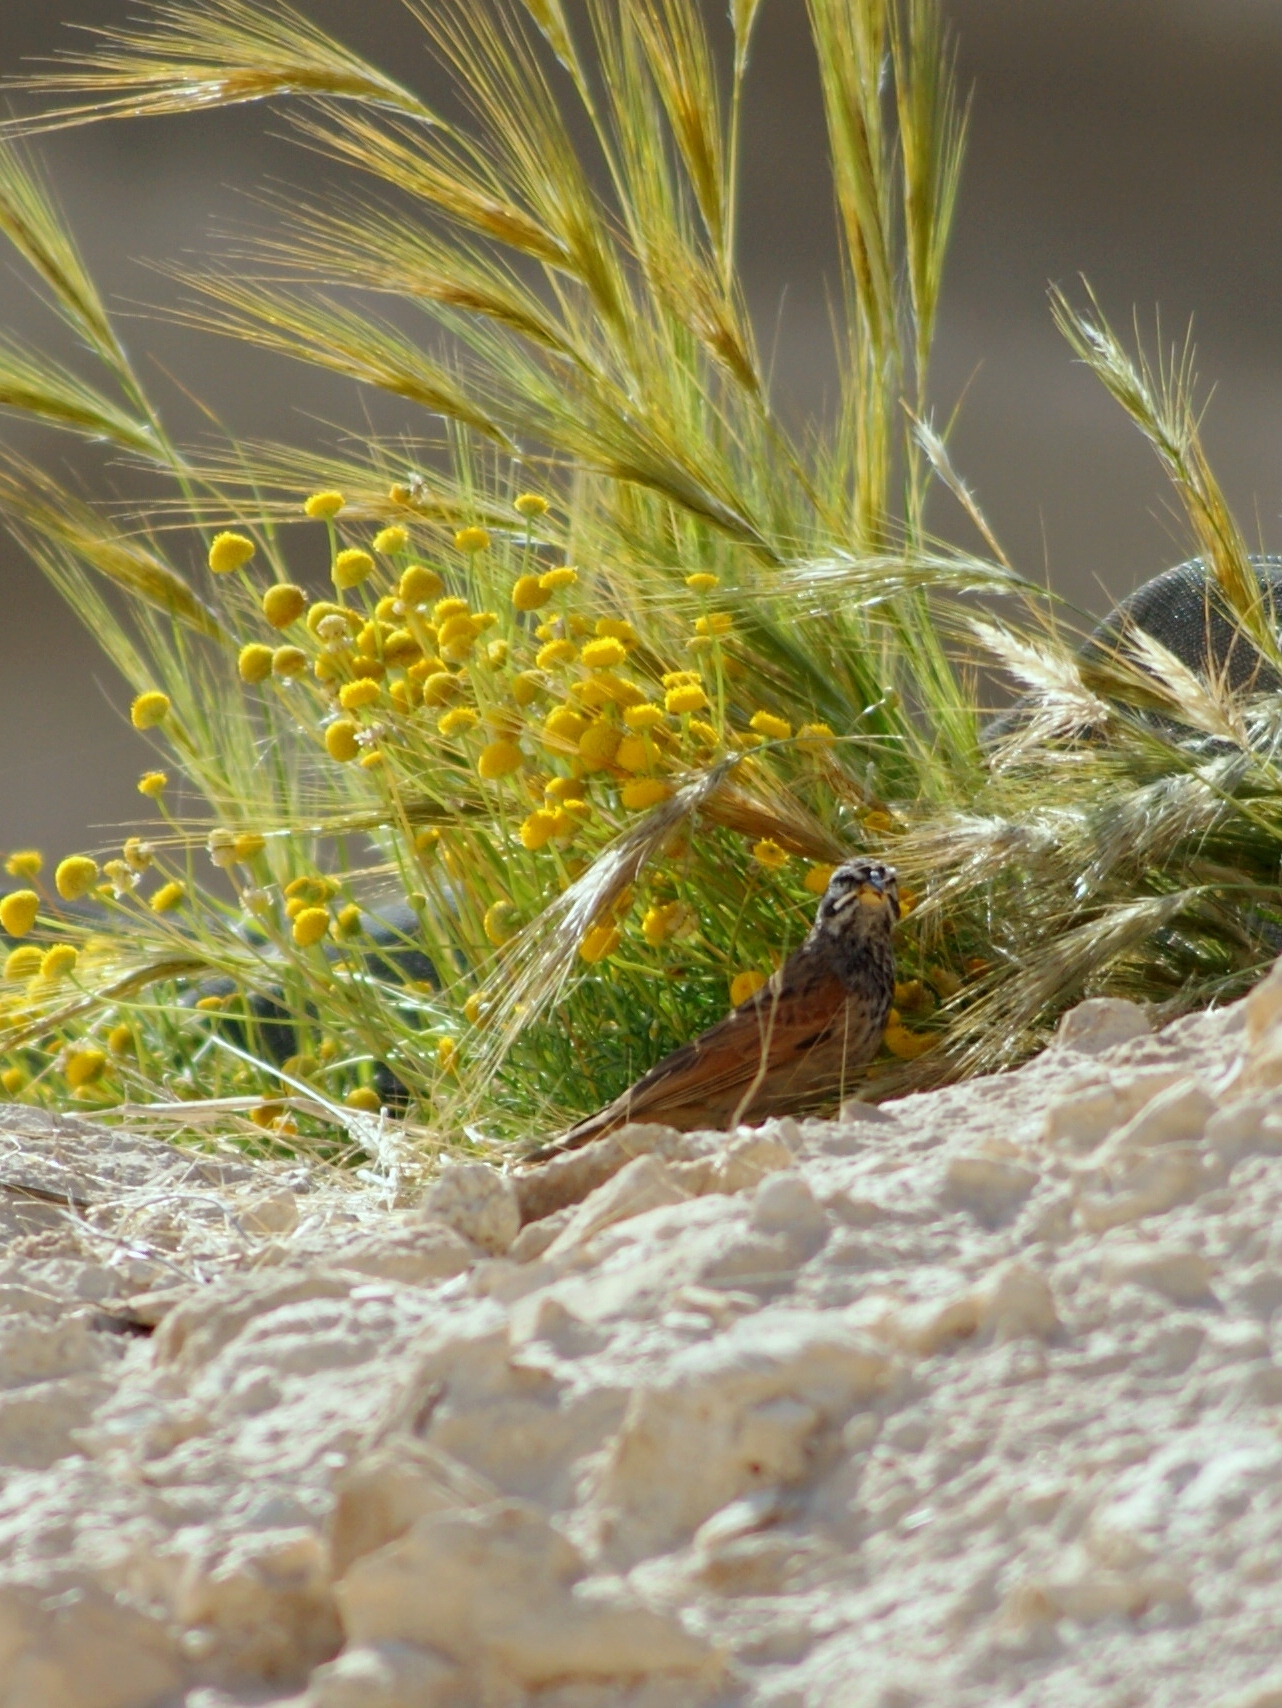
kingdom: Animalia
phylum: Chordata
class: Aves
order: Passeriformes
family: Emberizidae
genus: Emberiza
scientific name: Emberiza striolata
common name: Striolated bunting
